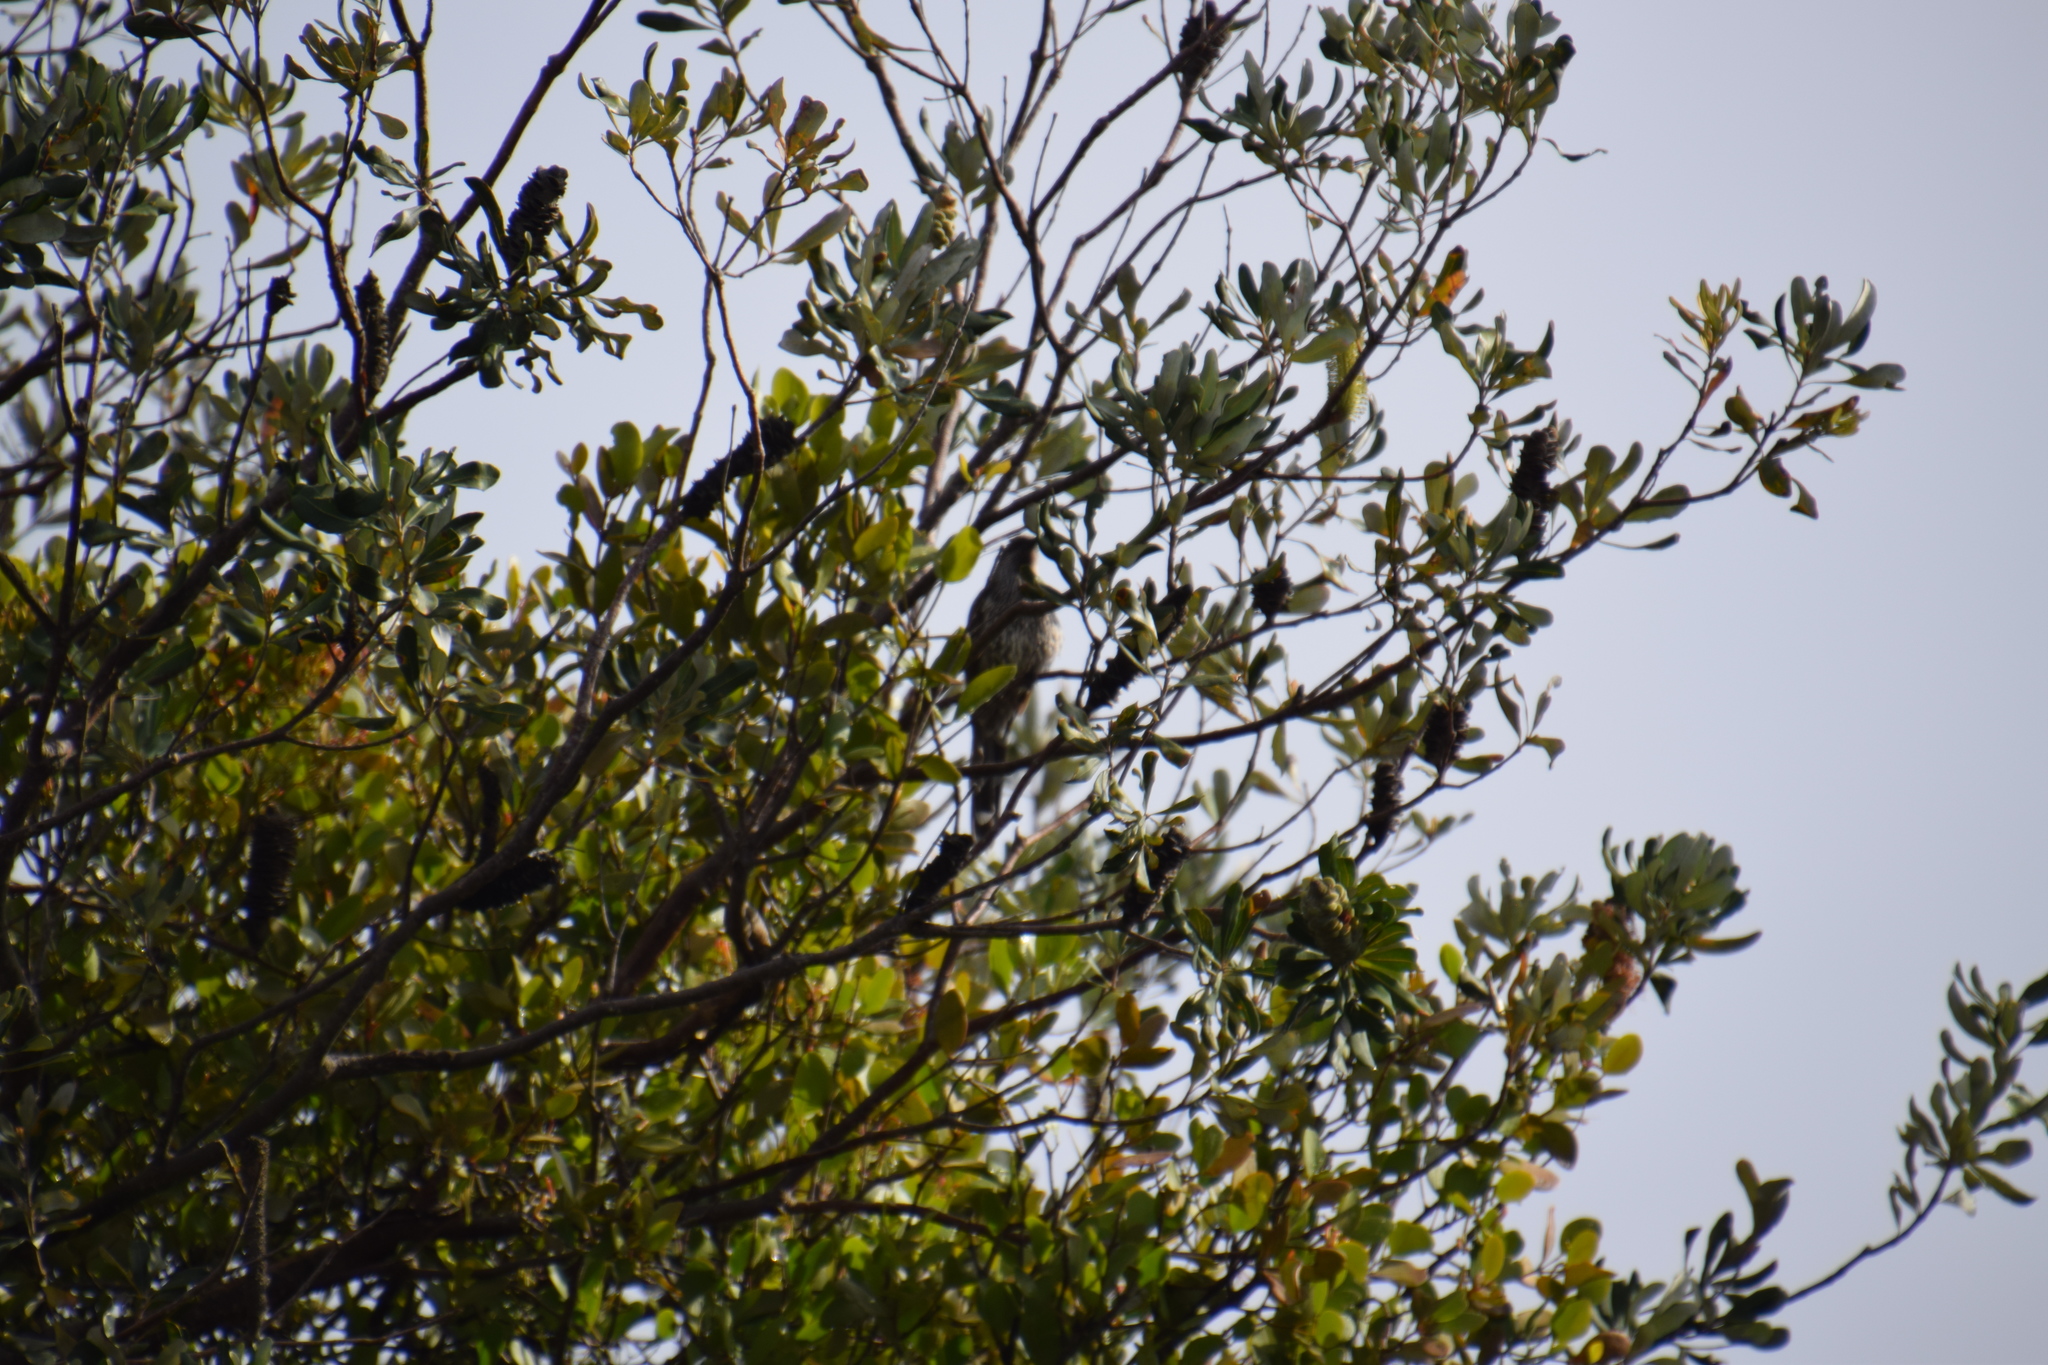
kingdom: Animalia
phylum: Chordata
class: Aves
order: Passeriformes
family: Meliphagidae
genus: Anthochaera
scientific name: Anthochaera chrysoptera
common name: Little wattlebird
